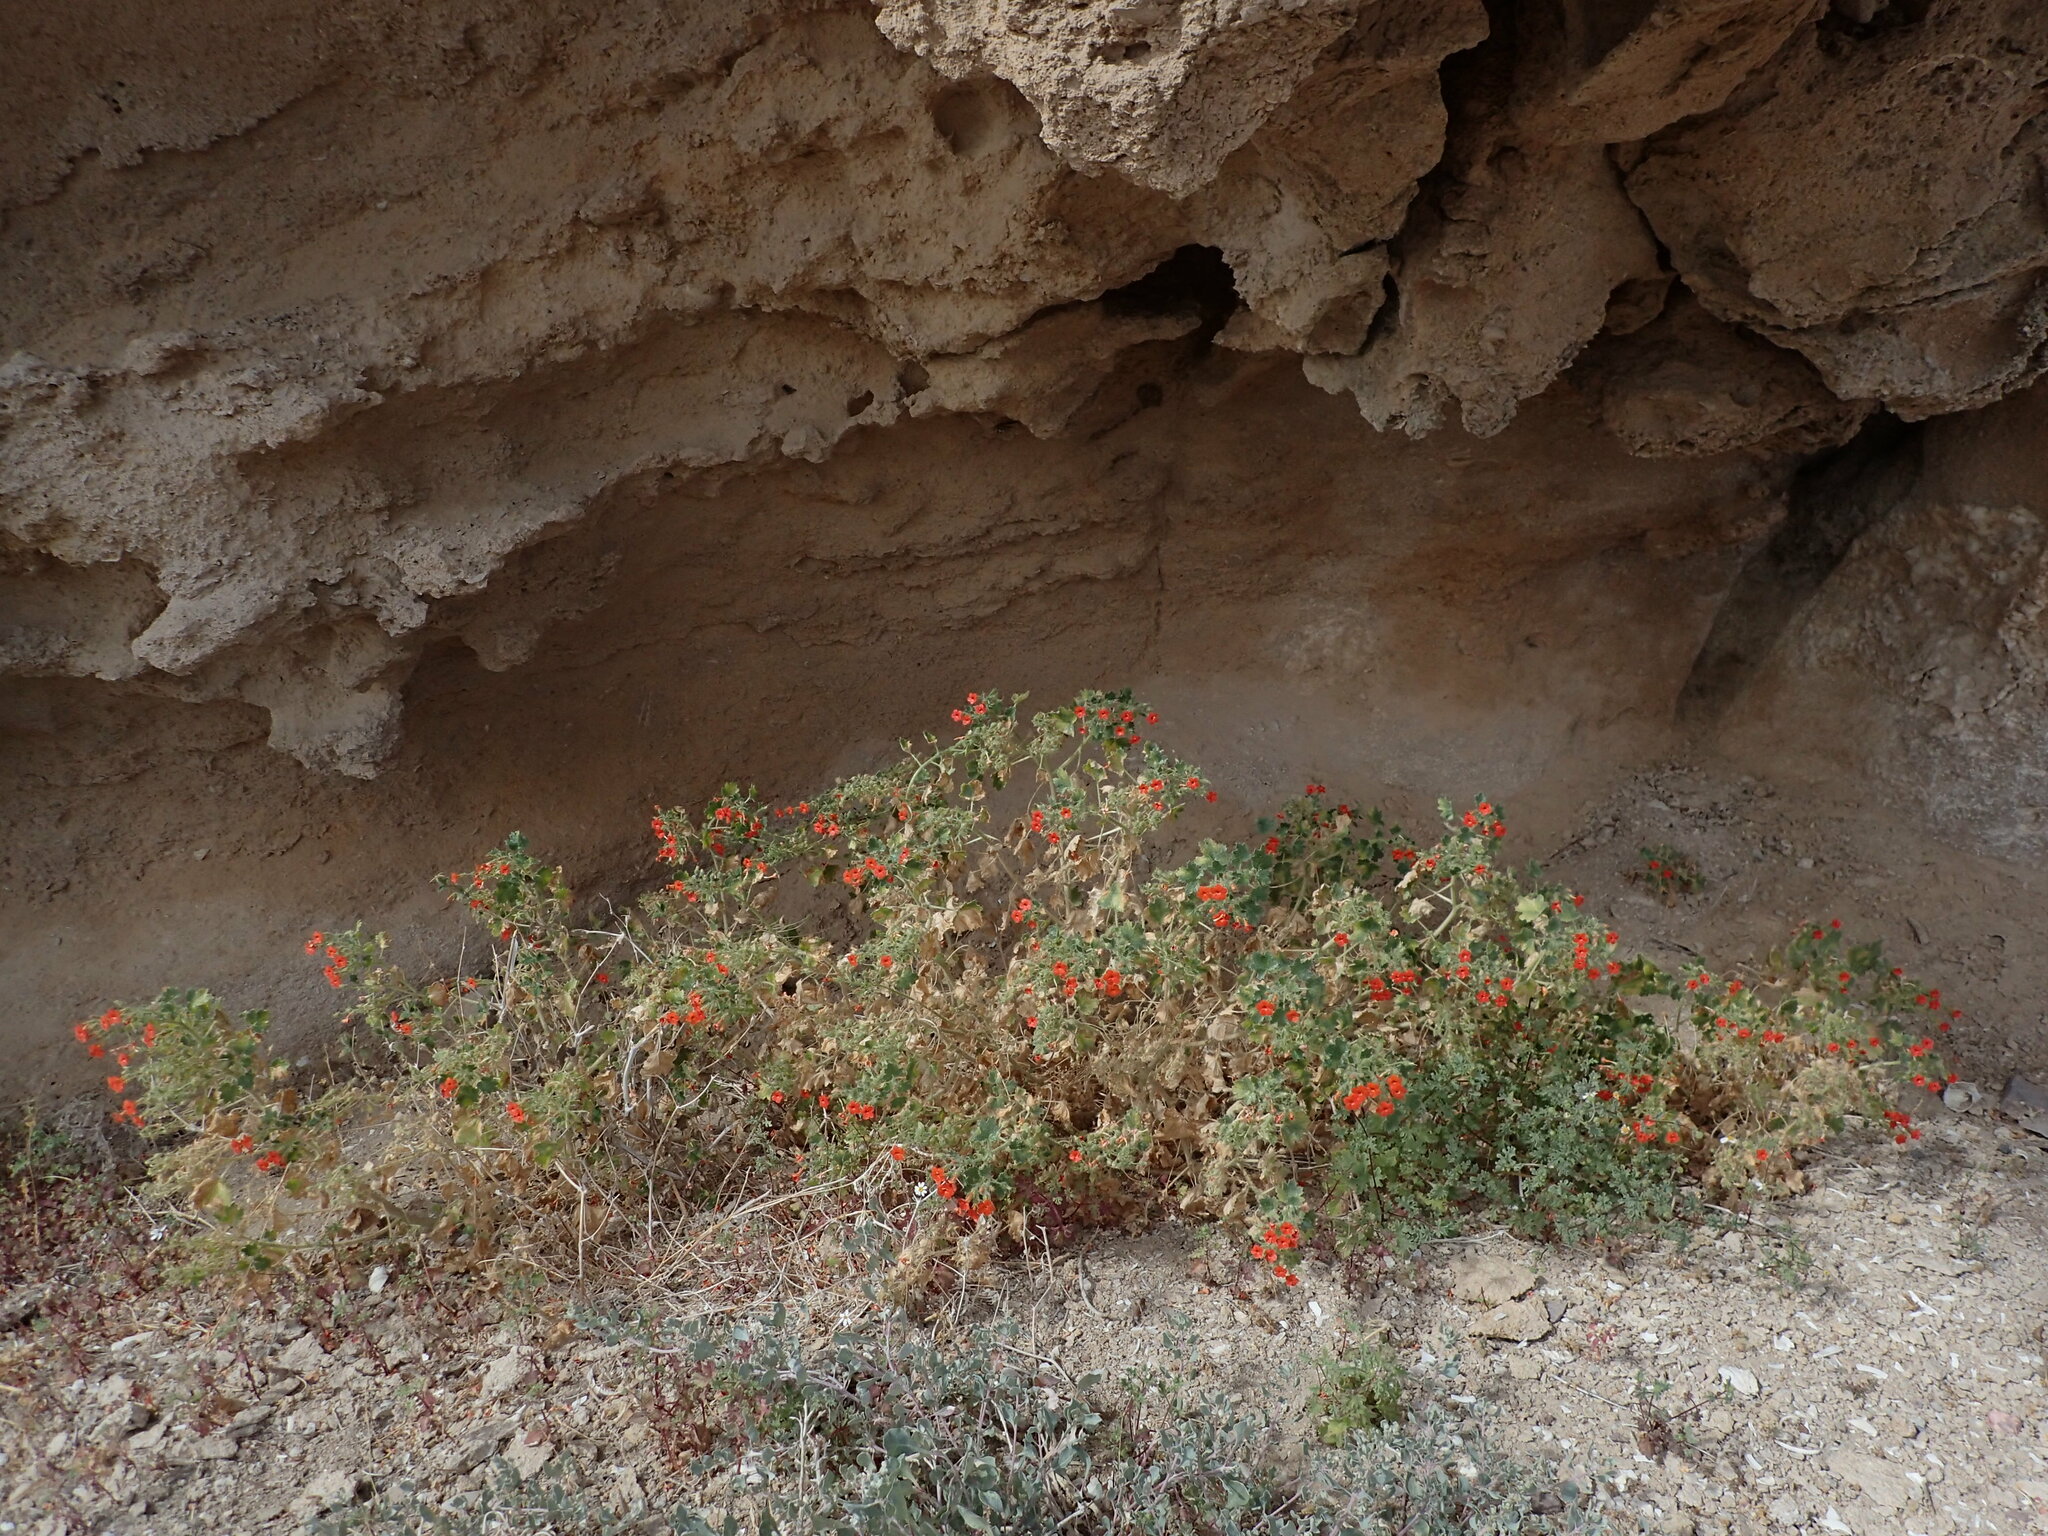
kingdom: Plantae
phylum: Tracheophyta
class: Magnoliopsida
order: Cornales
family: Loasaceae
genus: Eucnide
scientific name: Eucnide aurea
